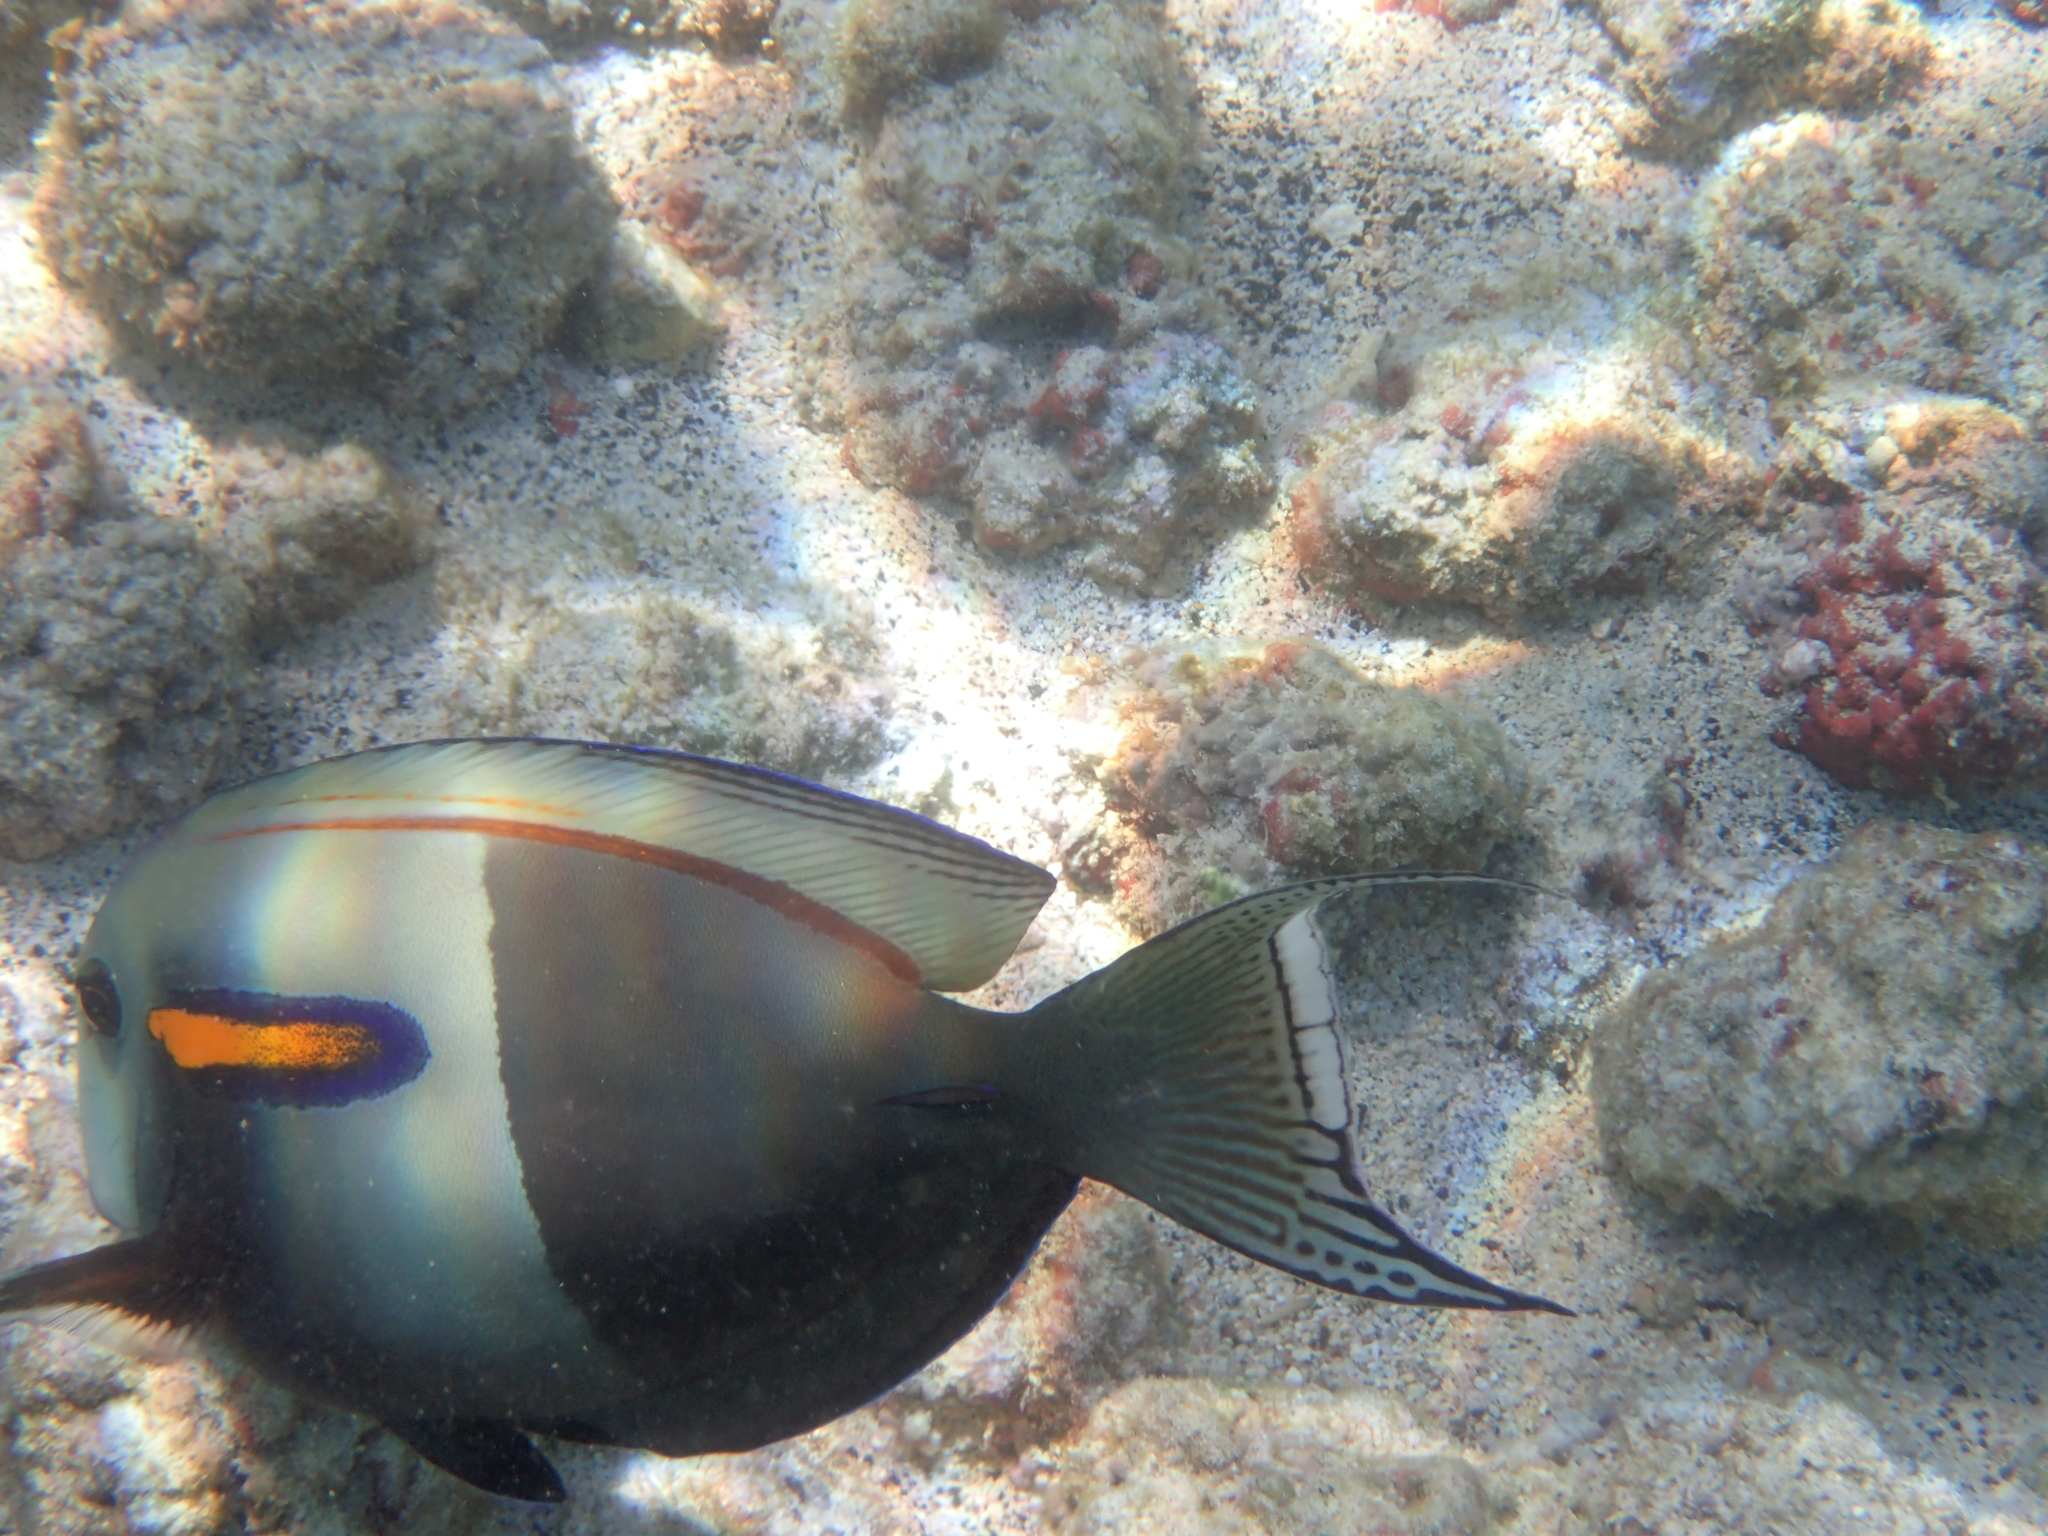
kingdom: Animalia
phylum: Chordata
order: Perciformes
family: Acanthuridae
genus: Acanthurus
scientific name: Acanthurus olivaceus
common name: Gendarme fish
